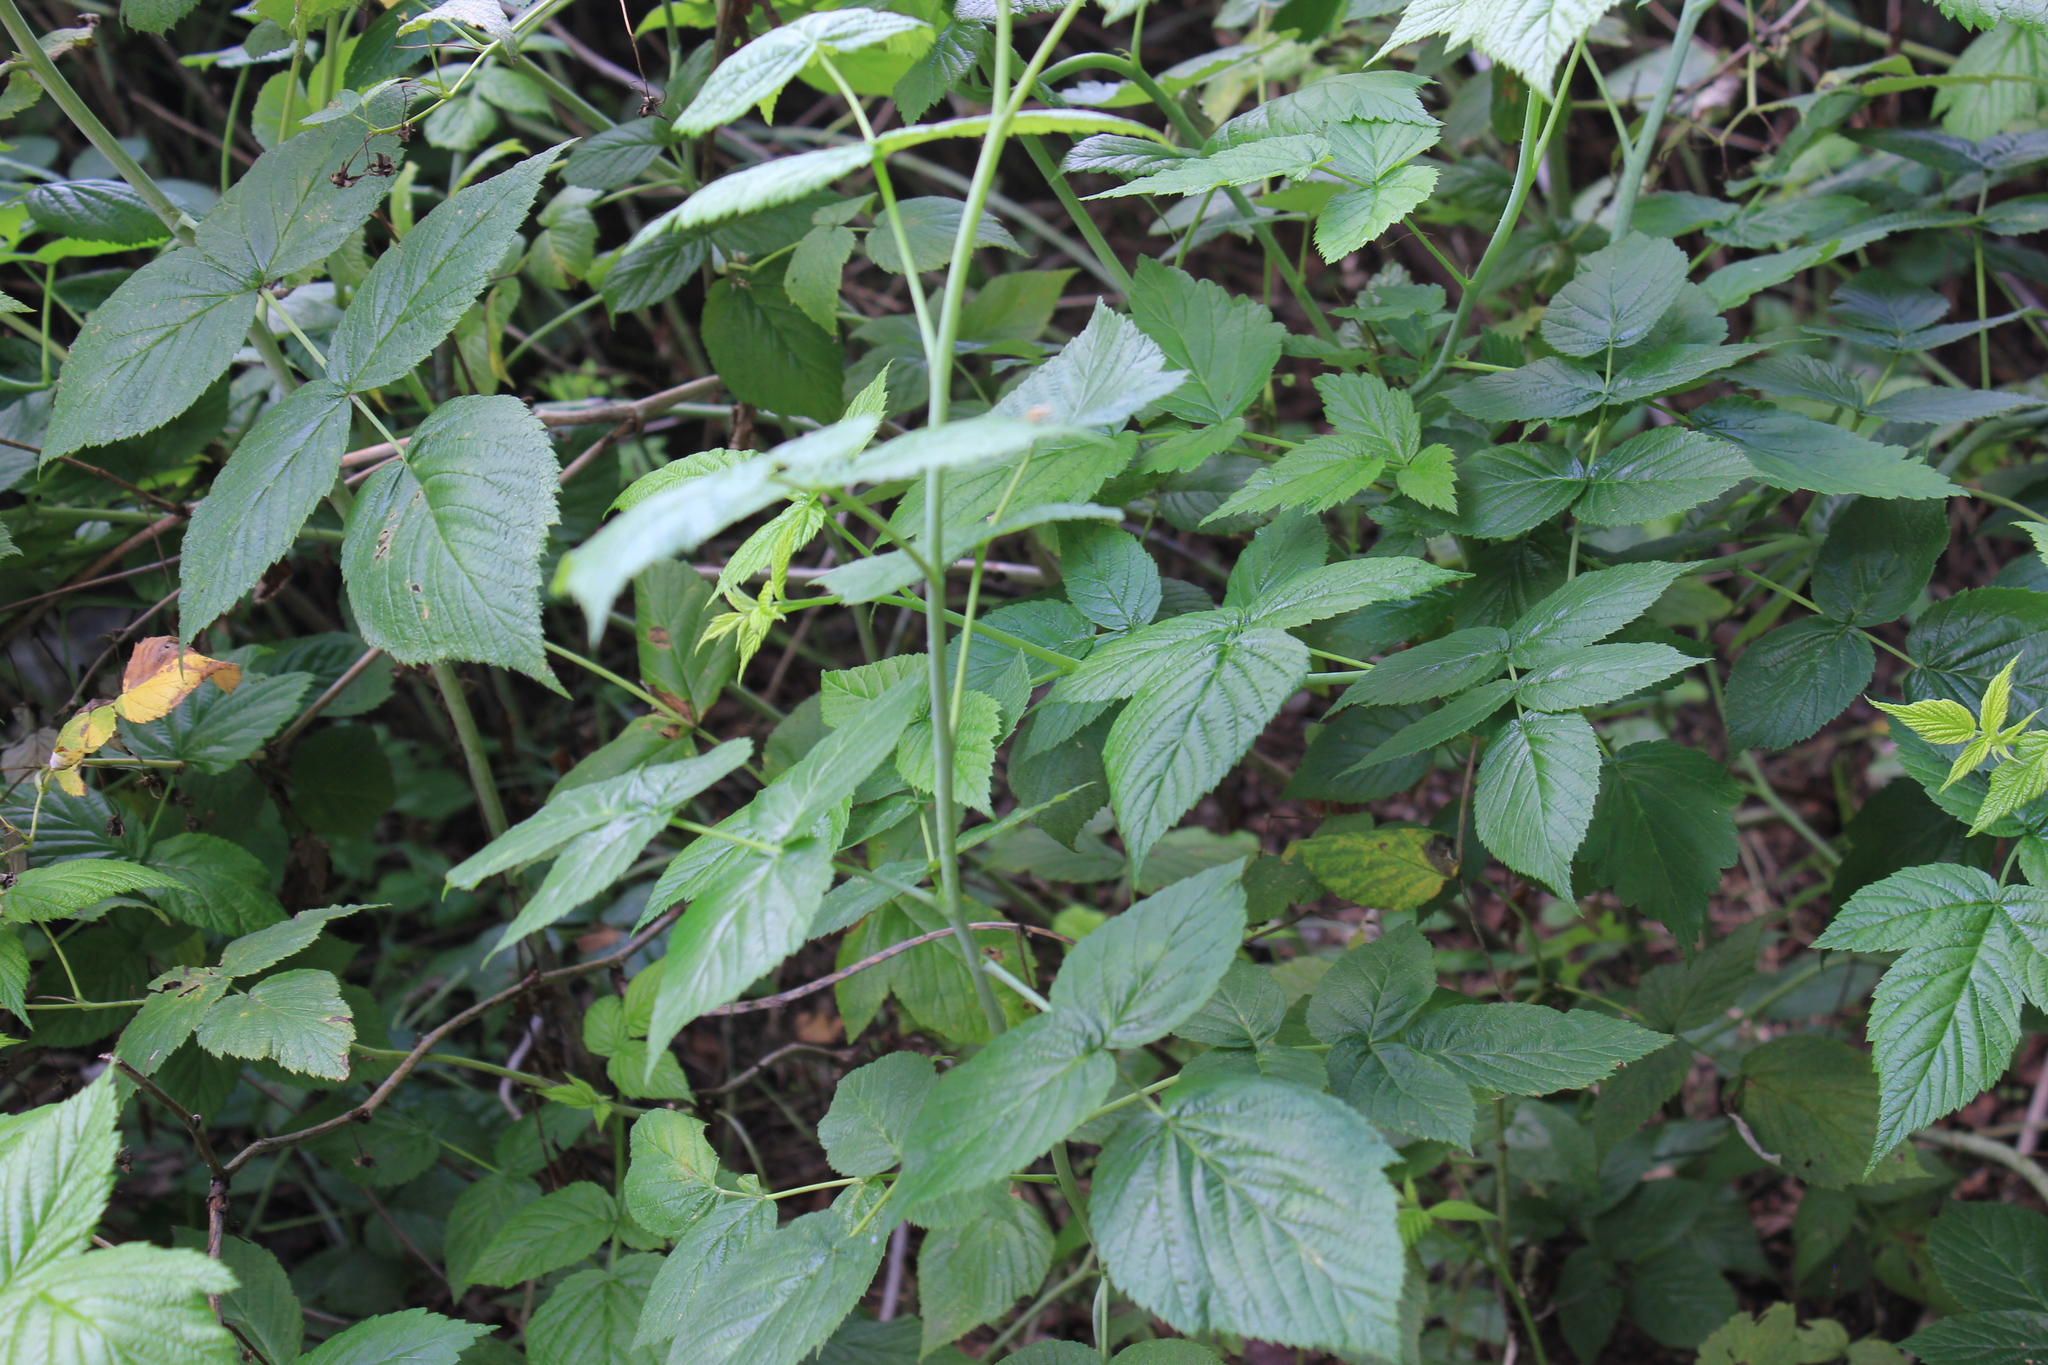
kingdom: Plantae
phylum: Tracheophyta
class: Magnoliopsida
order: Rosales
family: Rosaceae
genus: Rubus
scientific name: Rubus idaeus
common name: Raspberry
